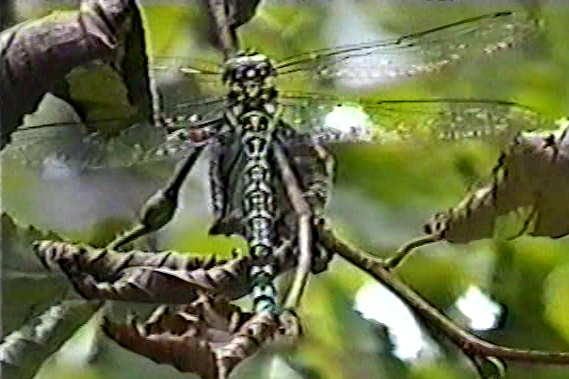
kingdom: Animalia
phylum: Arthropoda
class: Insecta
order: Odonata
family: Aeshnidae
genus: Aeshna
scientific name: Aeshna cyanea
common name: Southern hawker
